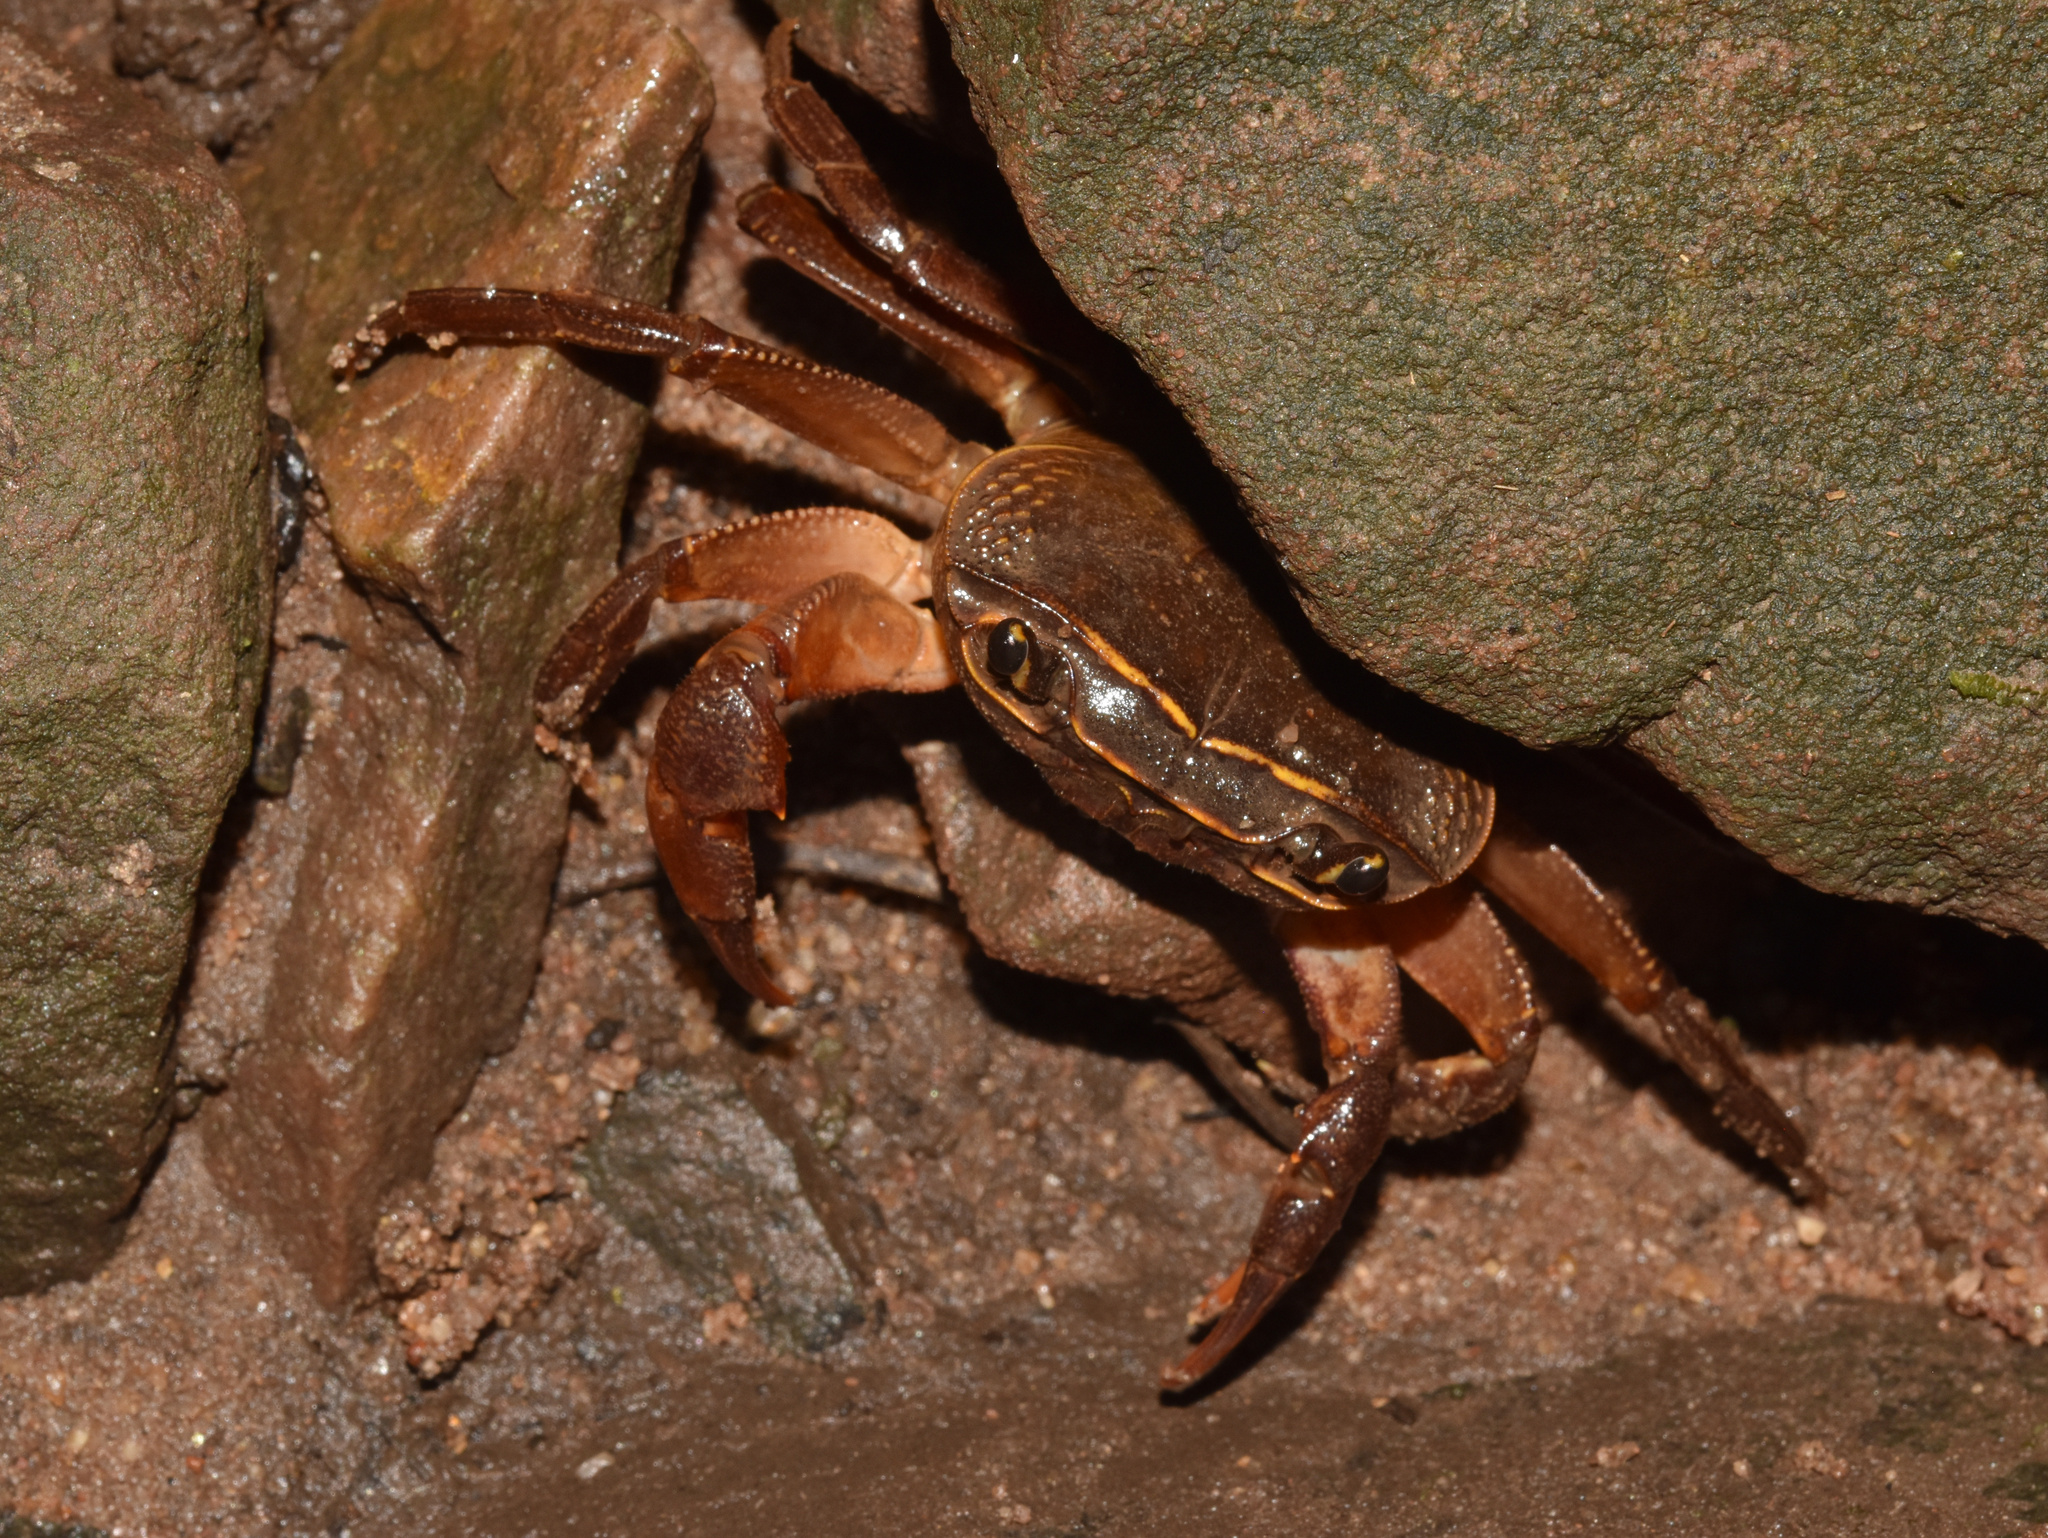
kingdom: Animalia
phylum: Arthropoda
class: Malacostraca
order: Decapoda
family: Potamonautidae
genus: Potamonautes
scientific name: Potamonautes sidneyi
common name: Natal river crab
